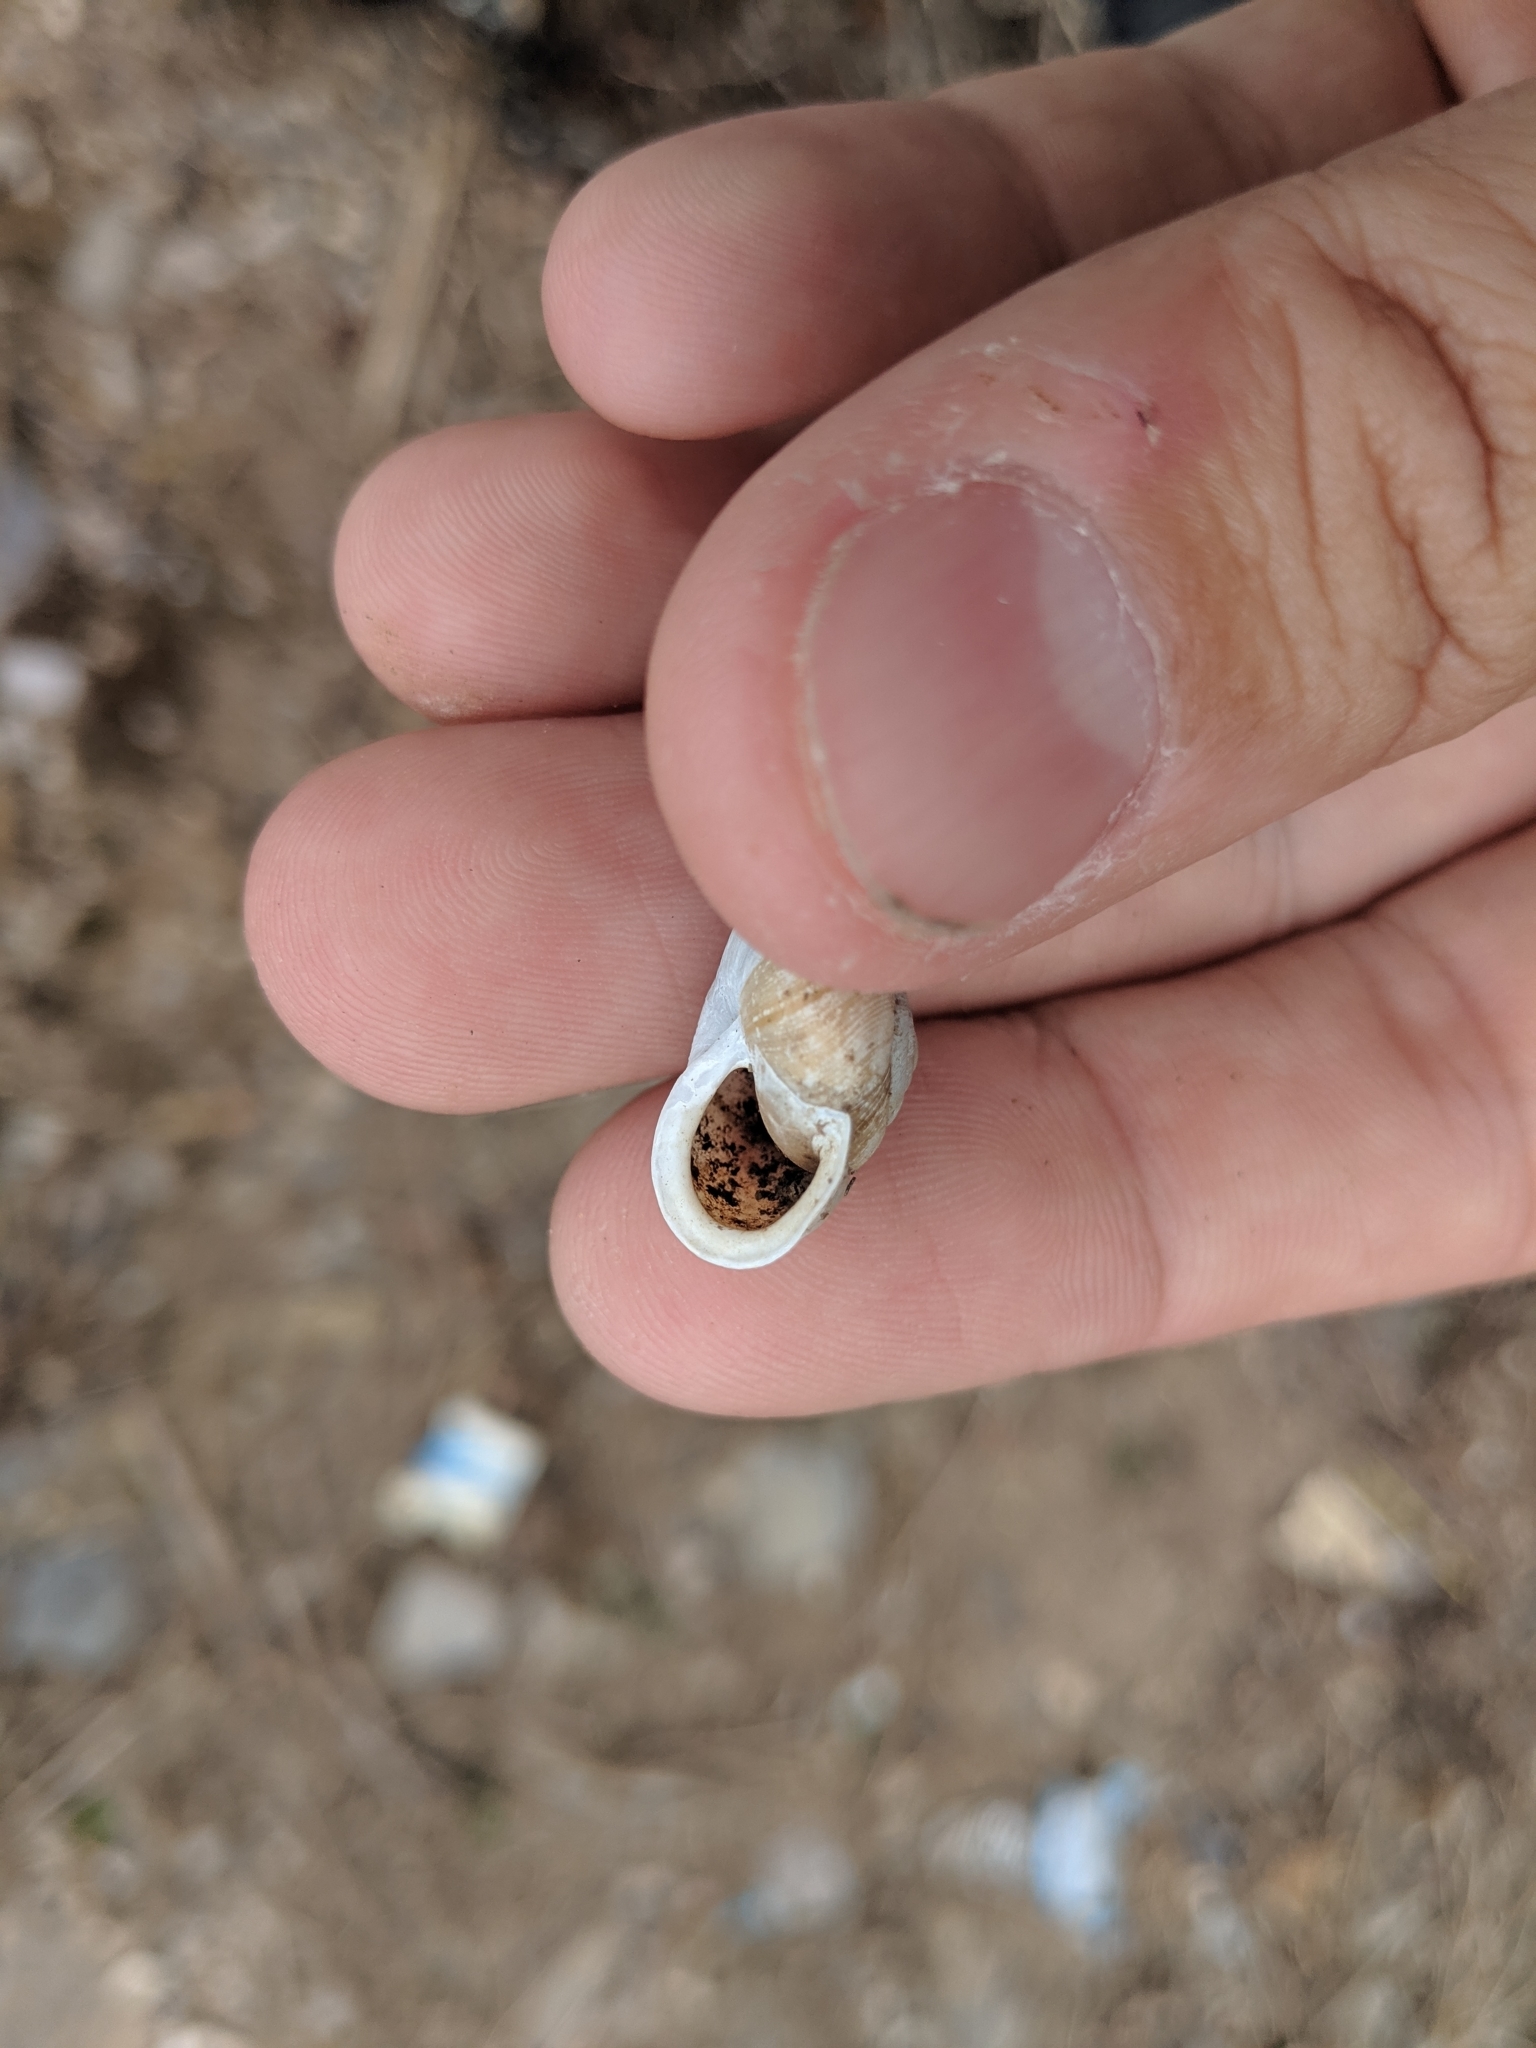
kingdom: Animalia
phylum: Mollusca
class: Gastropoda
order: Stylommatophora
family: Polygyridae
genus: Mesodon
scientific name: Mesodon thyroidus
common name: White-lip globe
